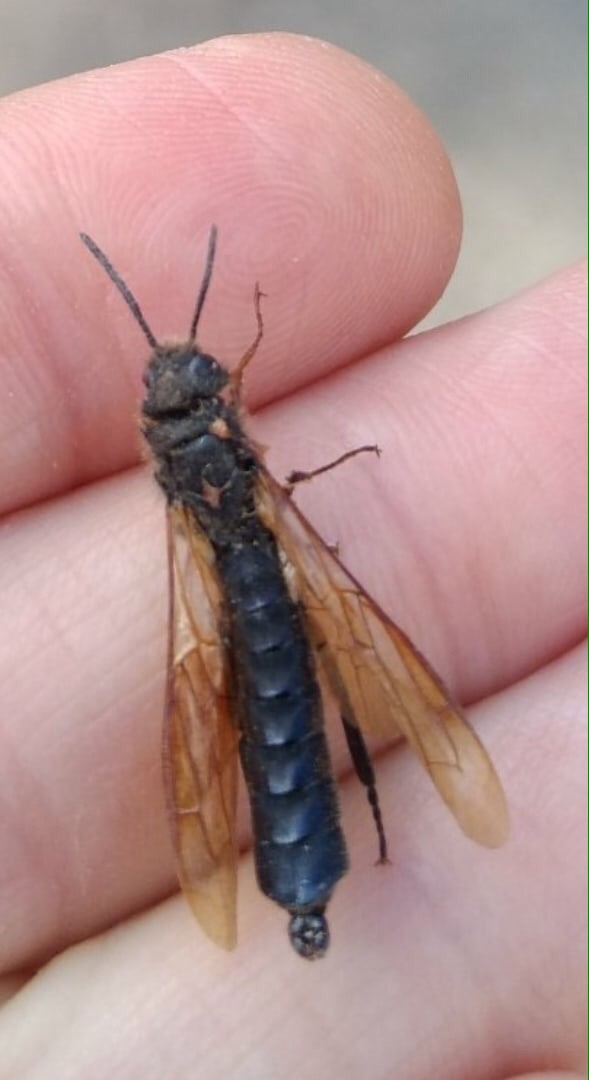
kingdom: Animalia
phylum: Arthropoda
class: Insecta
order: Hymenoptera
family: Siricidae
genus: Tremex
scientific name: Tremex fuscicornis
